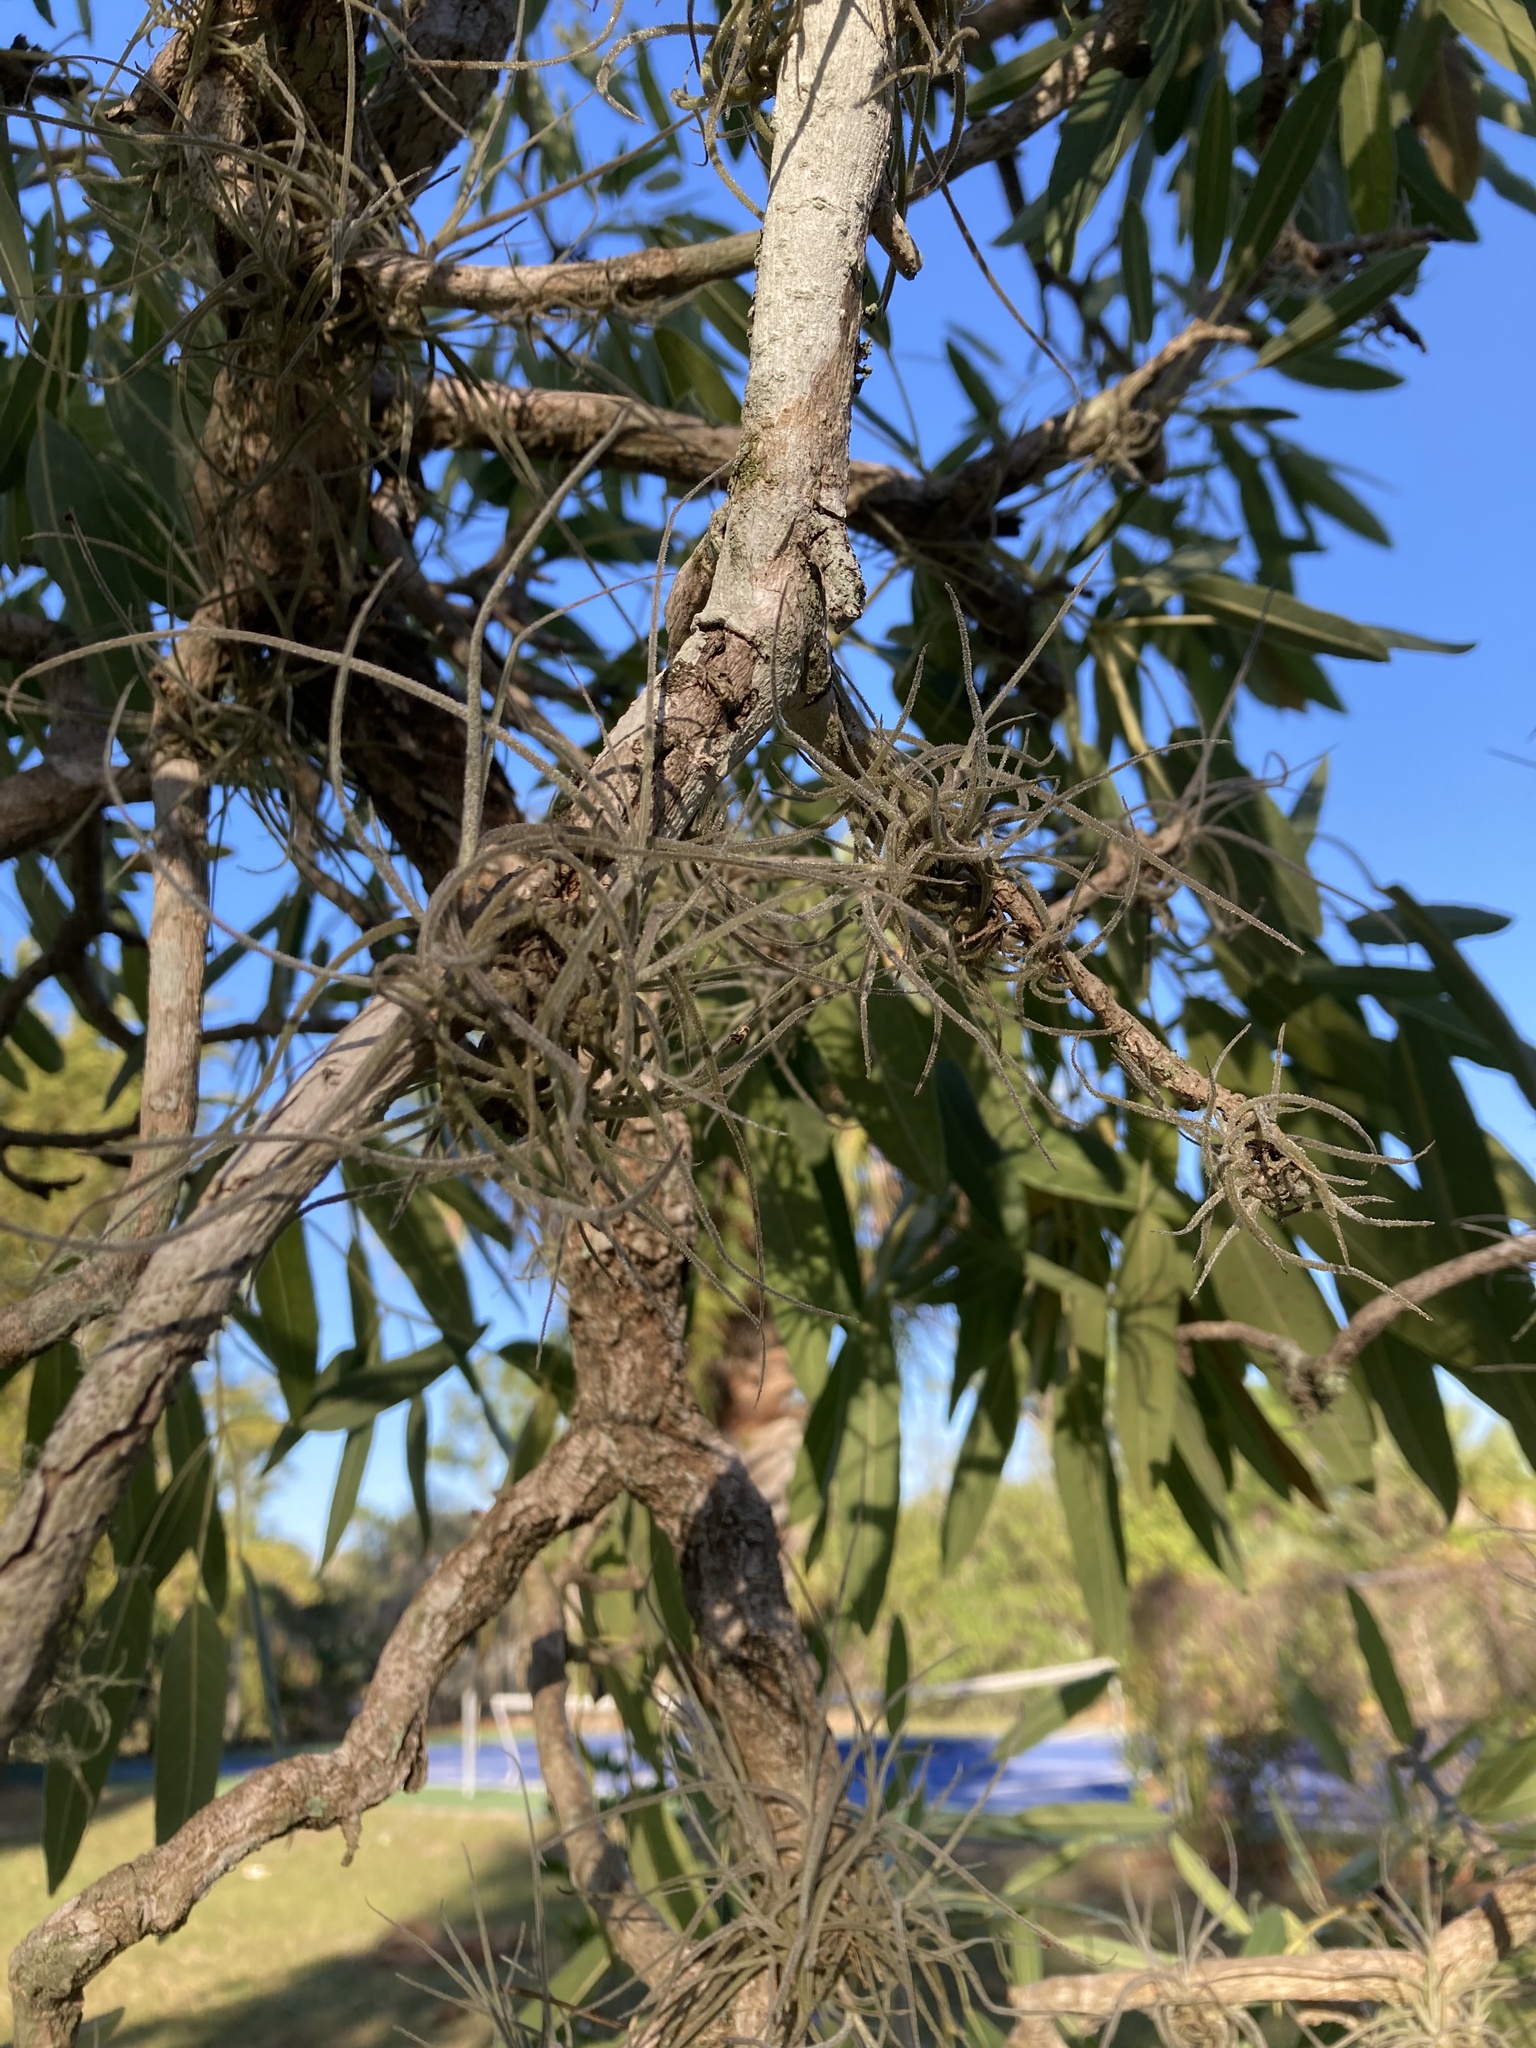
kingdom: Plantae
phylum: Tracheophyta
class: Liliopsida
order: Poales
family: Bromeliaceae
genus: Tillandsia
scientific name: Tillandsia recurvata
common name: Small ballmoss
